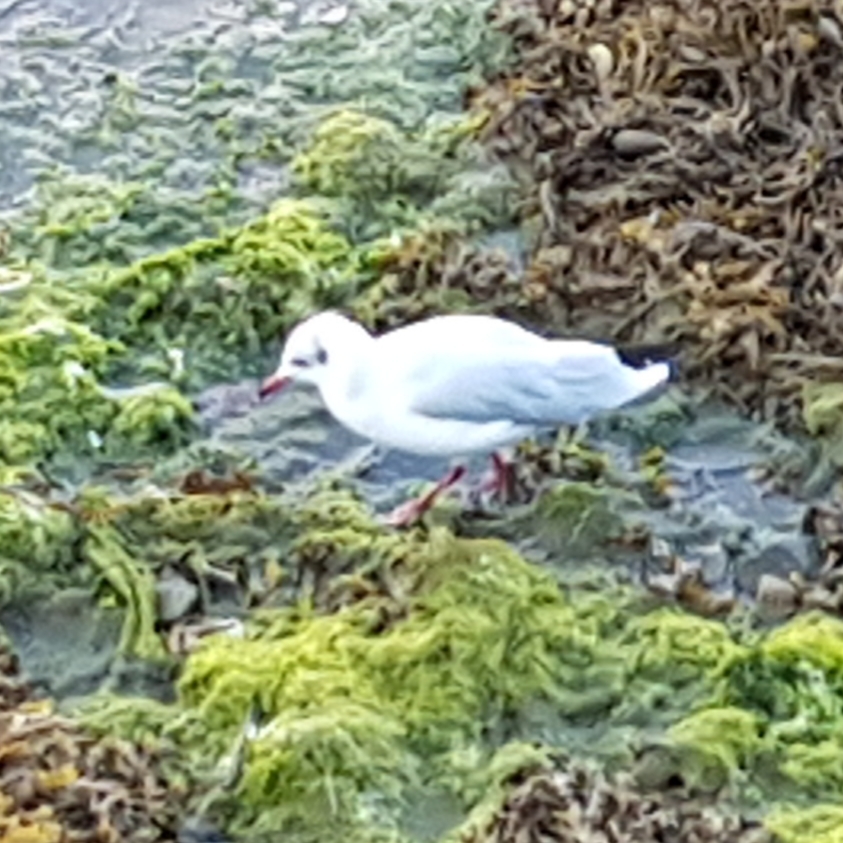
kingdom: Animalia
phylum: Chordata
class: Aves
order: Charadriiformes
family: Laridae
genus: Chroicocephalus
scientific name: Chroicocephalus ridibundus
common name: Black-headed gull
